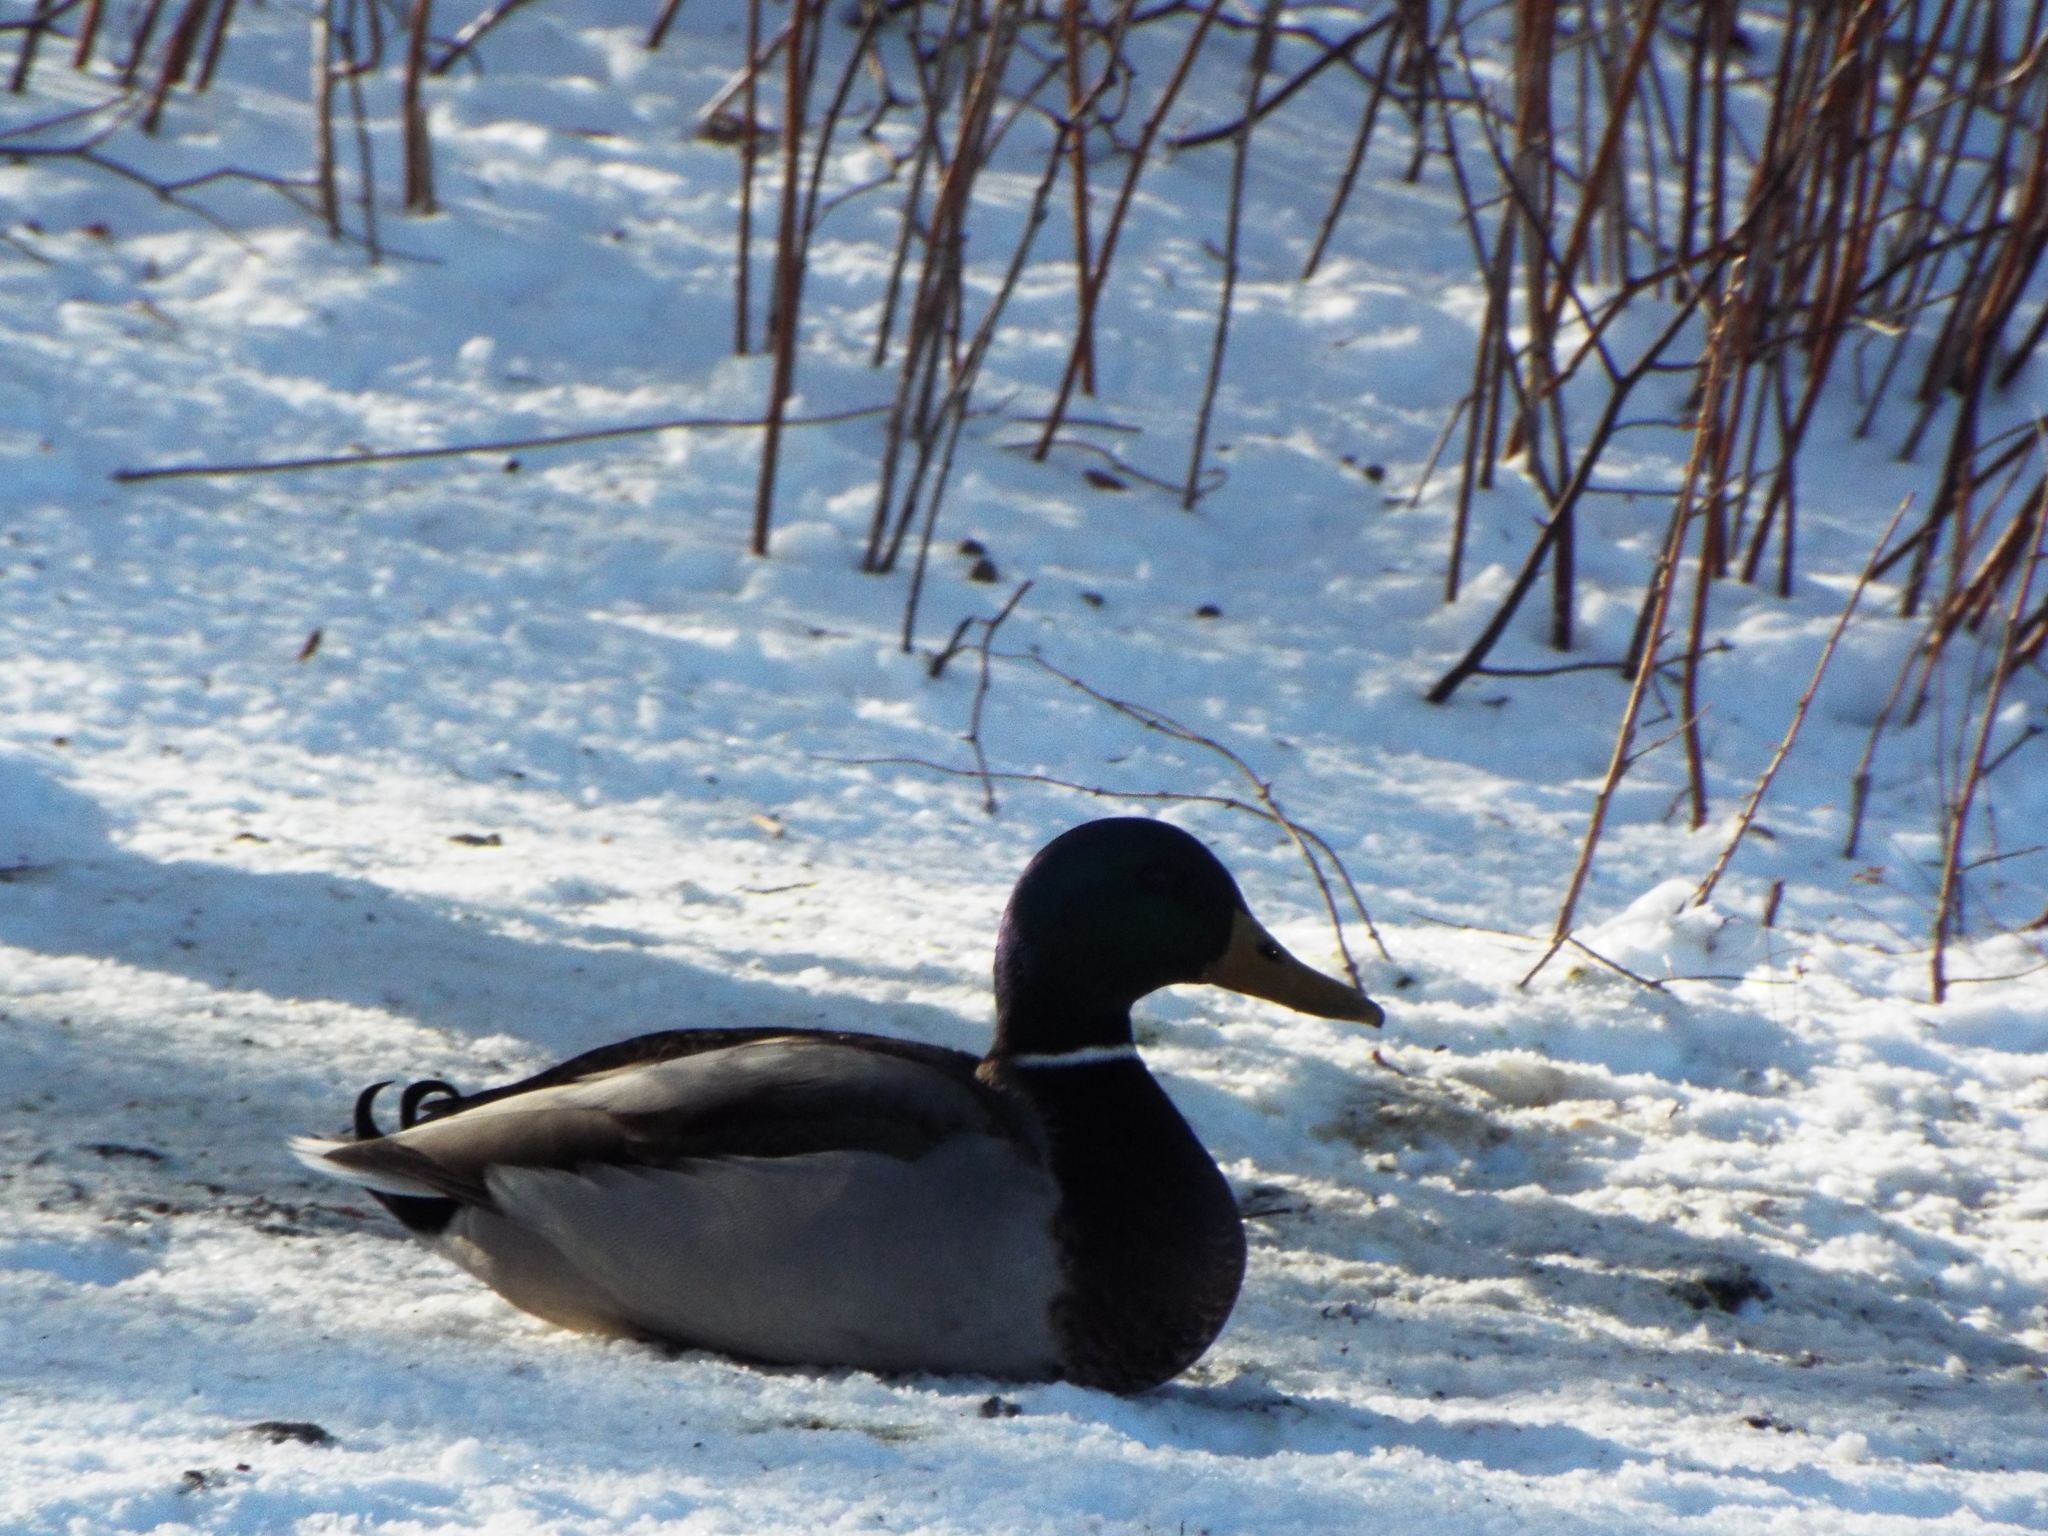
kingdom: Animalia
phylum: Chordata
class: Aves
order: Anseriformes
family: Anatidae
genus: Anas
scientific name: Anas platyrhynchos
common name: Mallard
